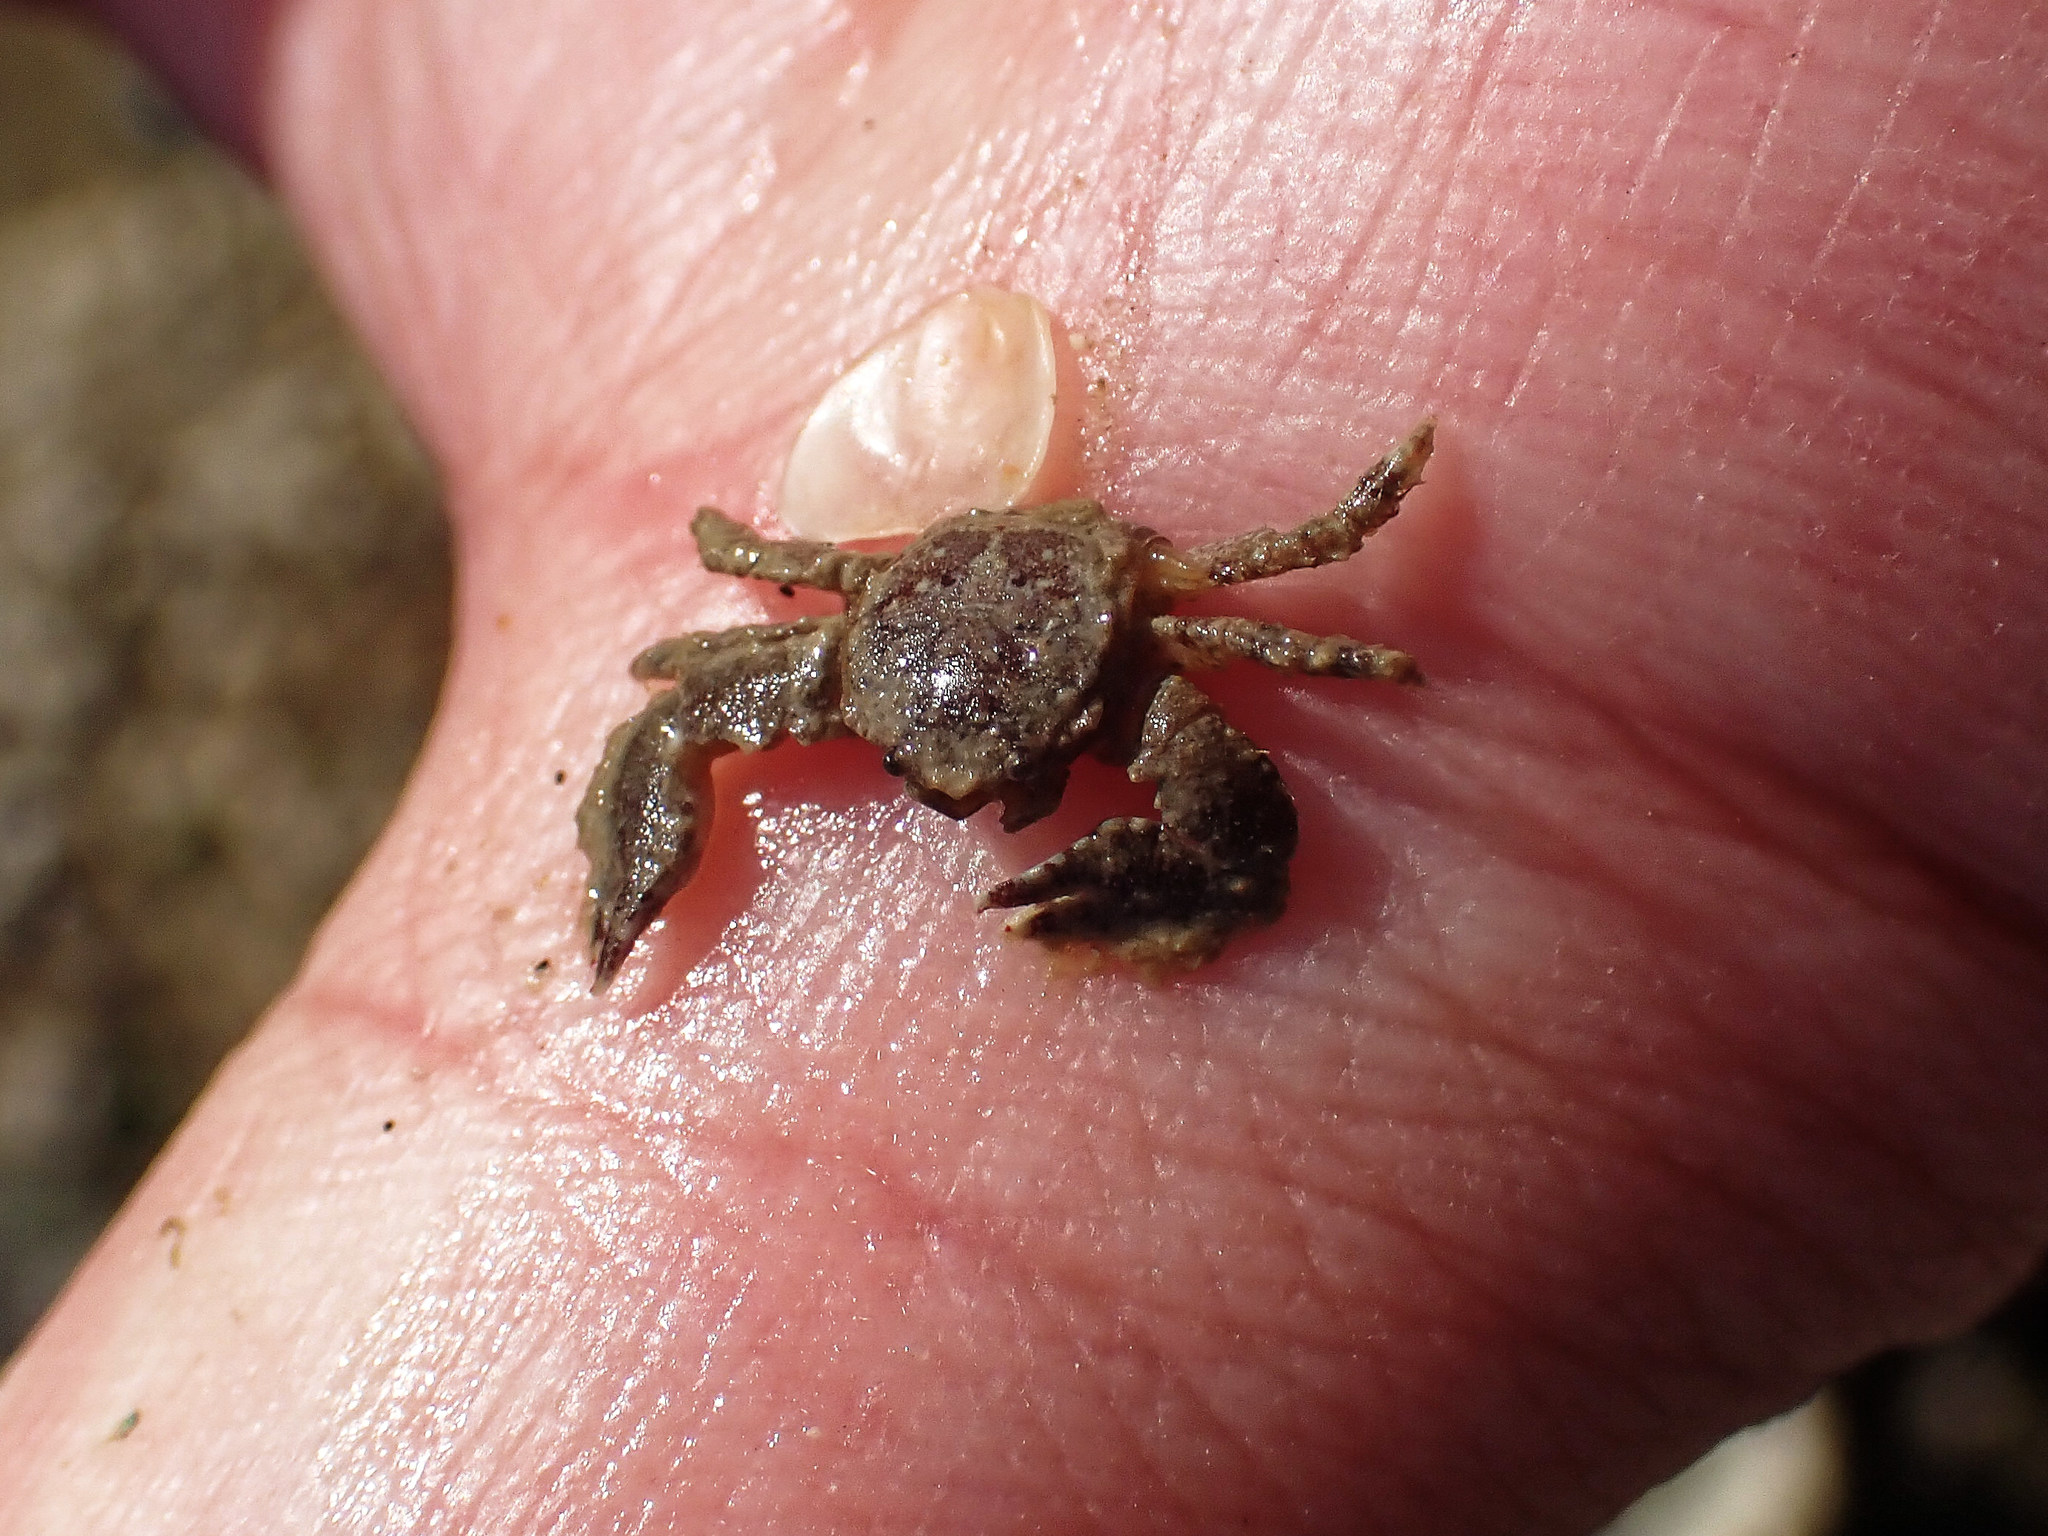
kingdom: Animalia
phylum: Arthropoda
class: Malacostraca
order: Decapoda
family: Porcellanidae
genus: Porcellana
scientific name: Porcellana platycheles
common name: Porcelain crab
